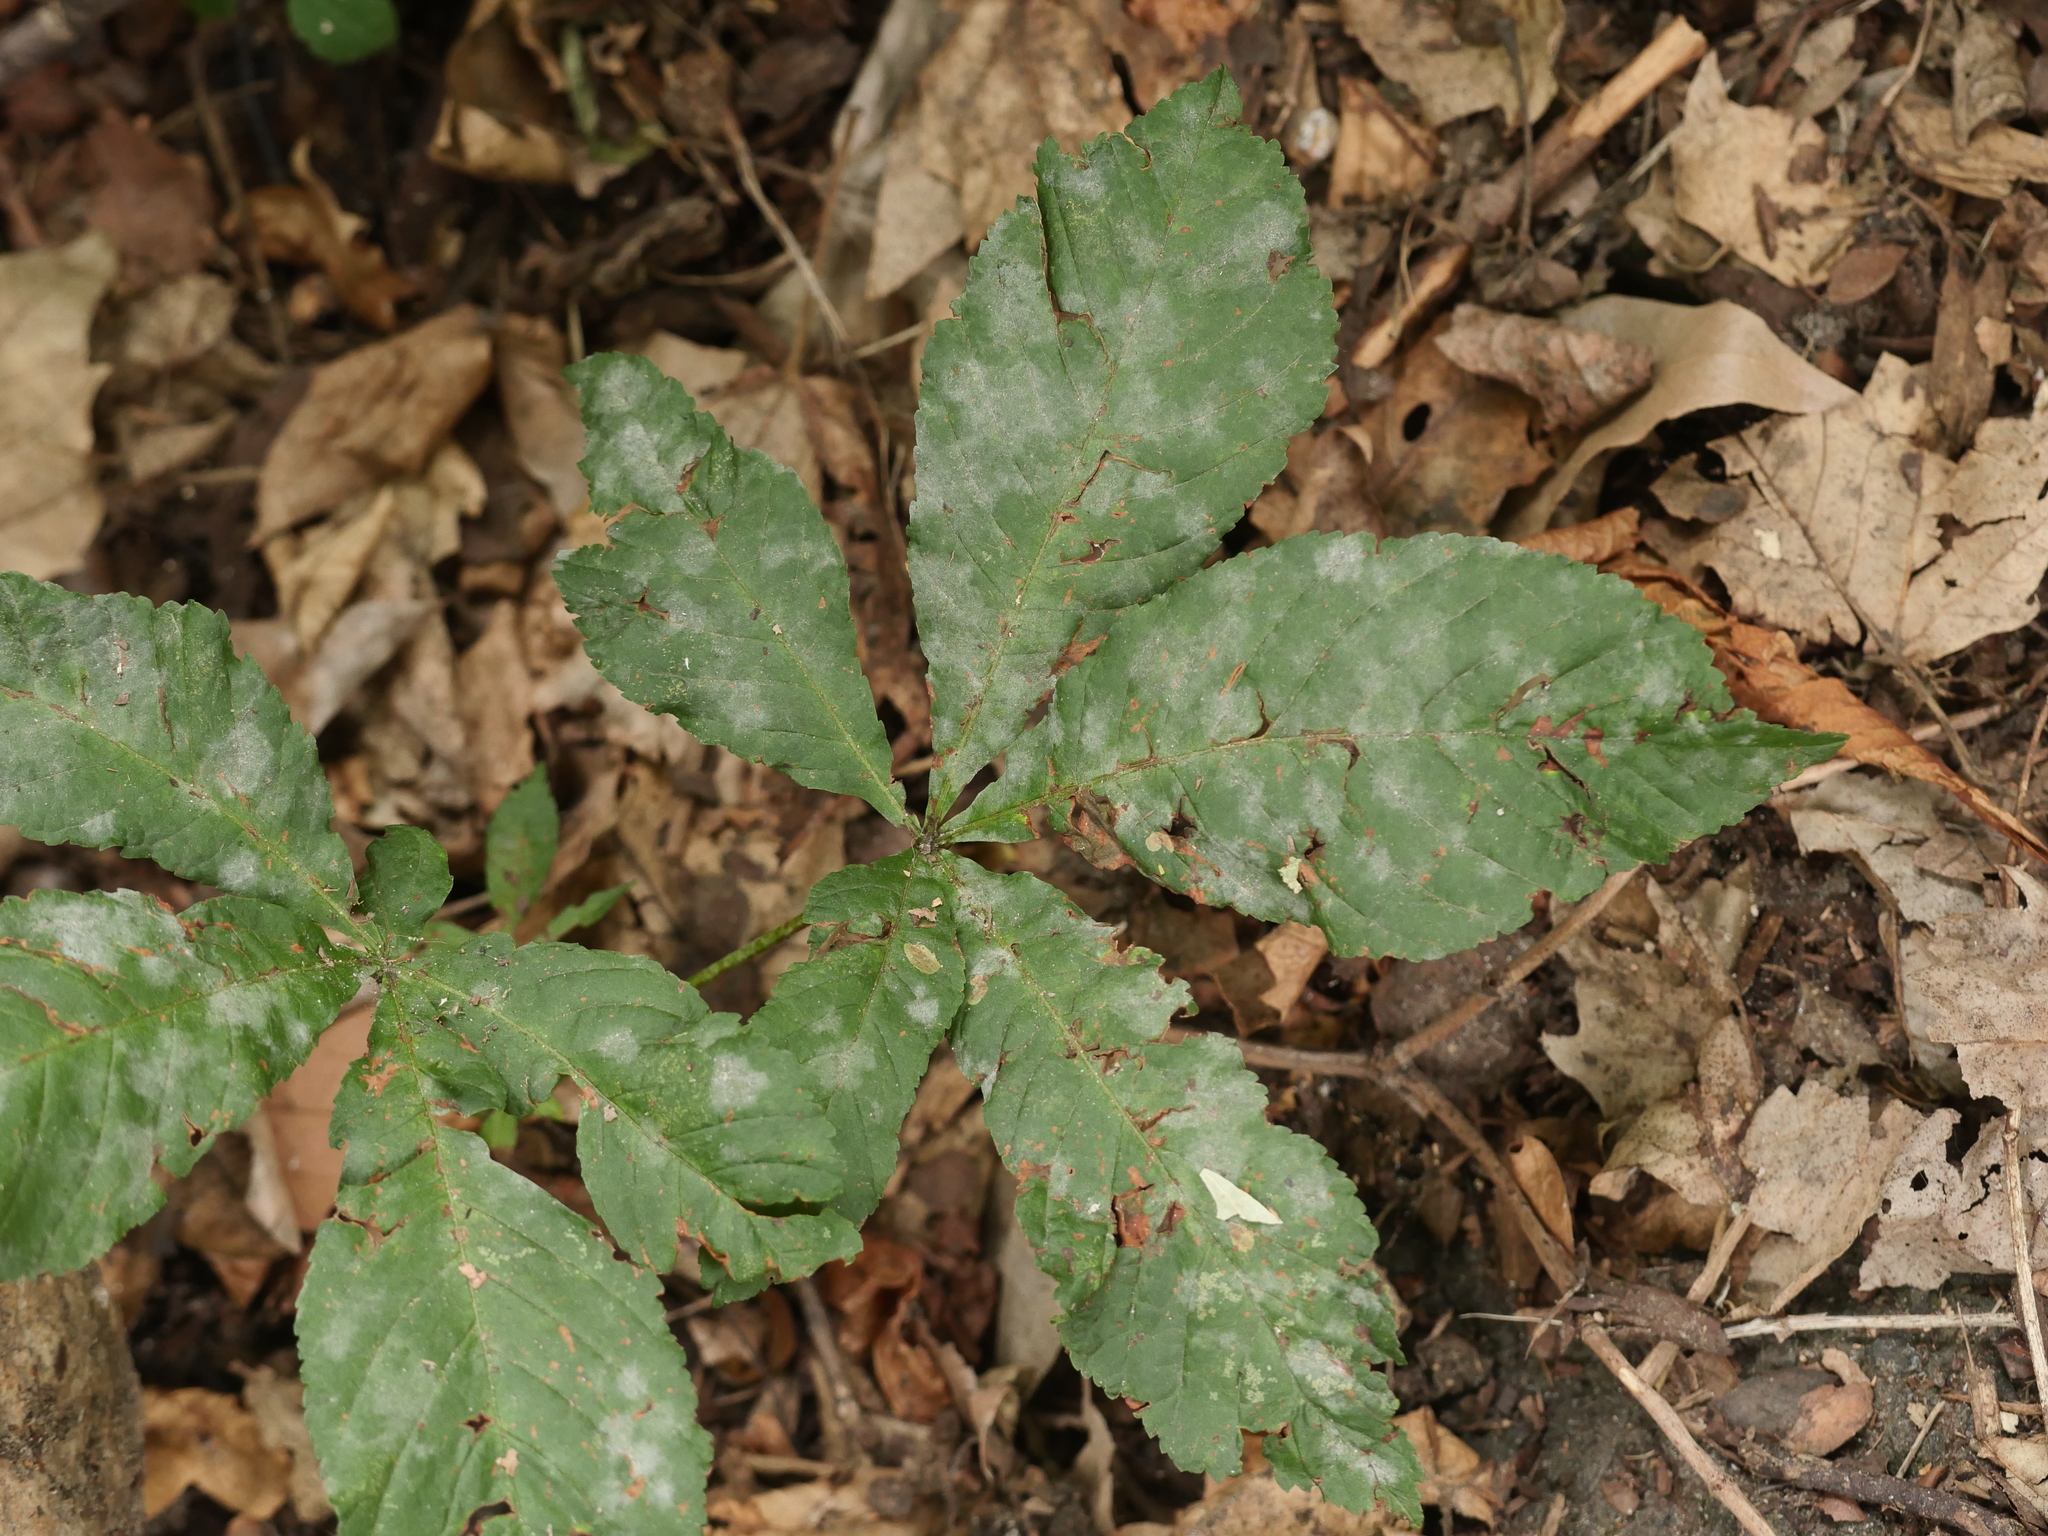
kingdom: Fungi
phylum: Ascomycota
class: Leotiomycetes
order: Helotiales
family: Erysiphaceae
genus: Erysiphe
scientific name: Erysiphe flexuosa
